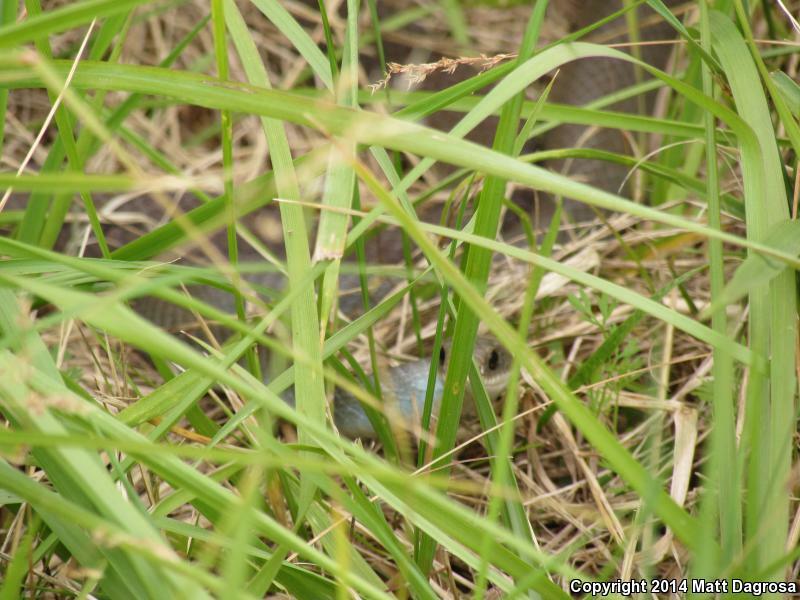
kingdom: Animalia
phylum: Chordata
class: Squamata
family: Colubridae
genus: Coluber
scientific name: Coluber constrictor
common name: Eastern racer
